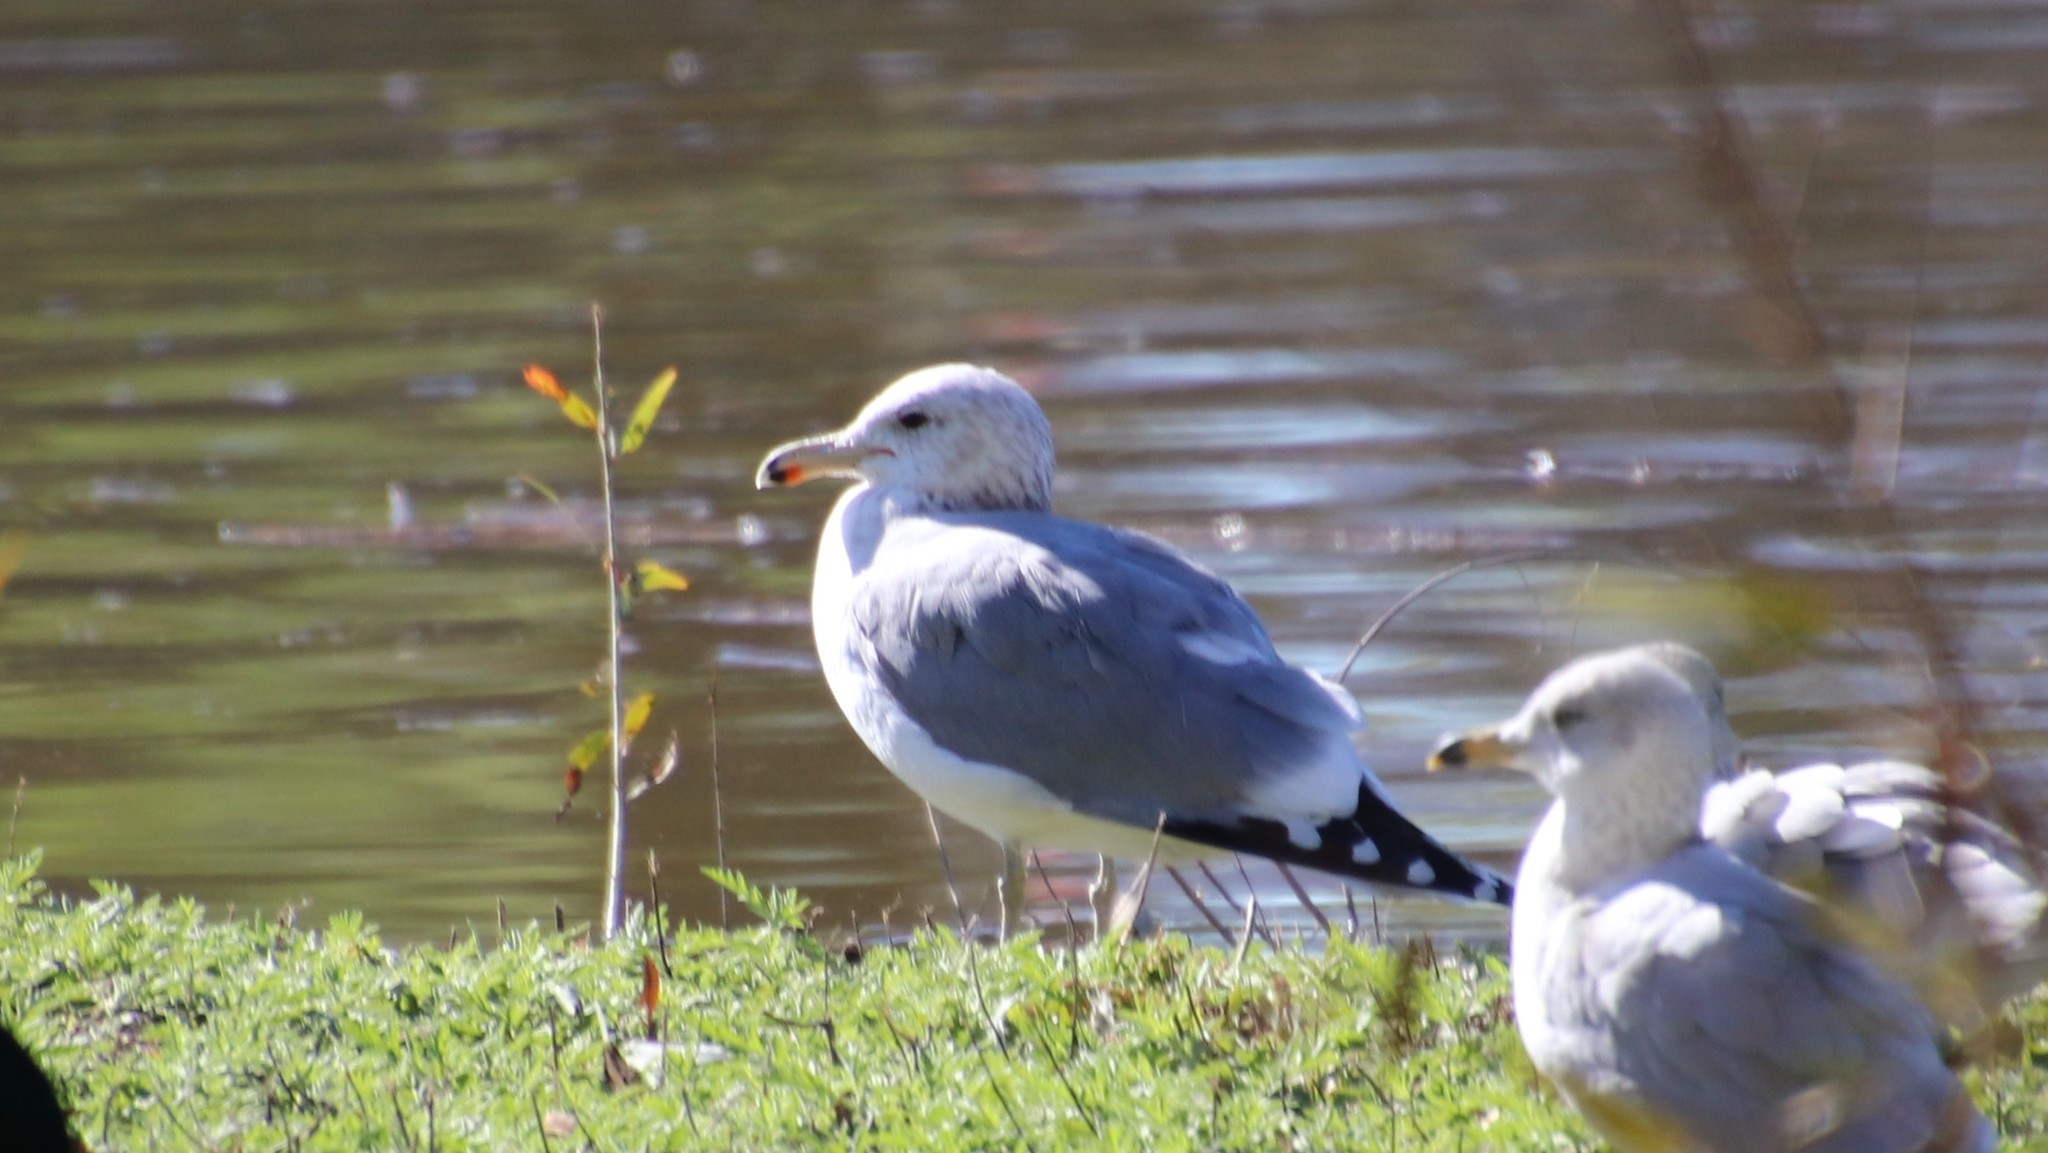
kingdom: Animalia
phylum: Chordata
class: Aves
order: Charadriiformes
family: Laridae
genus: Larus
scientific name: Larus californicus
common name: California gull
